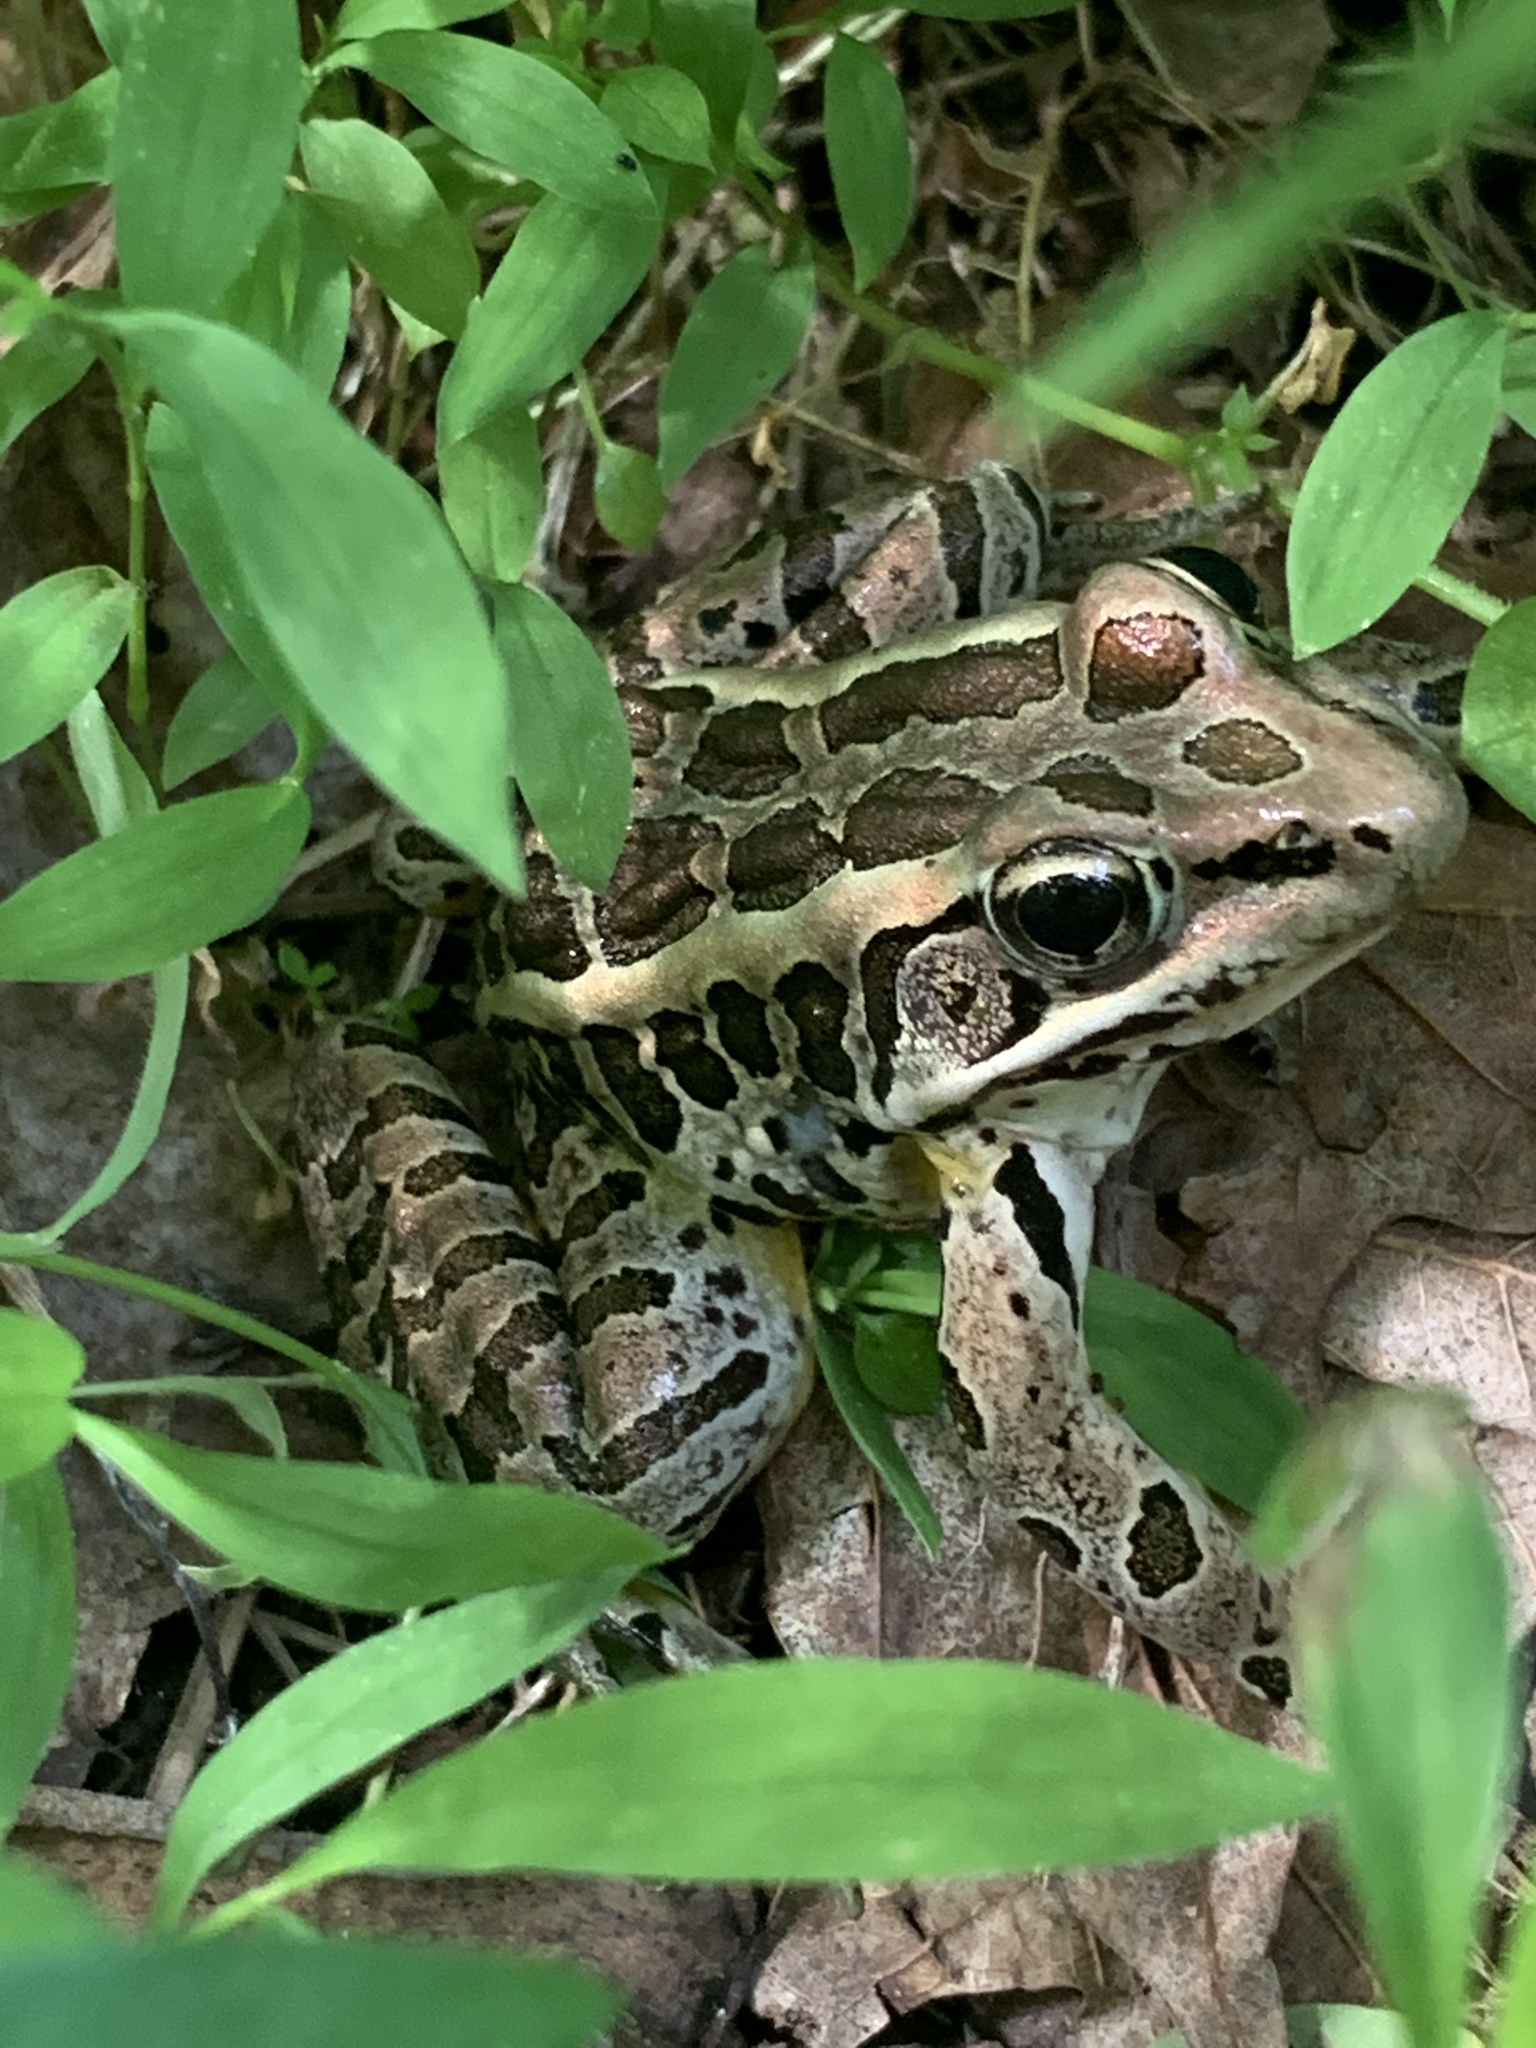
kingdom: Animalia
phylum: Chordata
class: Amphibia
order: Anura
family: Ranidae
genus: Lithobates
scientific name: Lithobates palustris
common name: Pickerel frog
